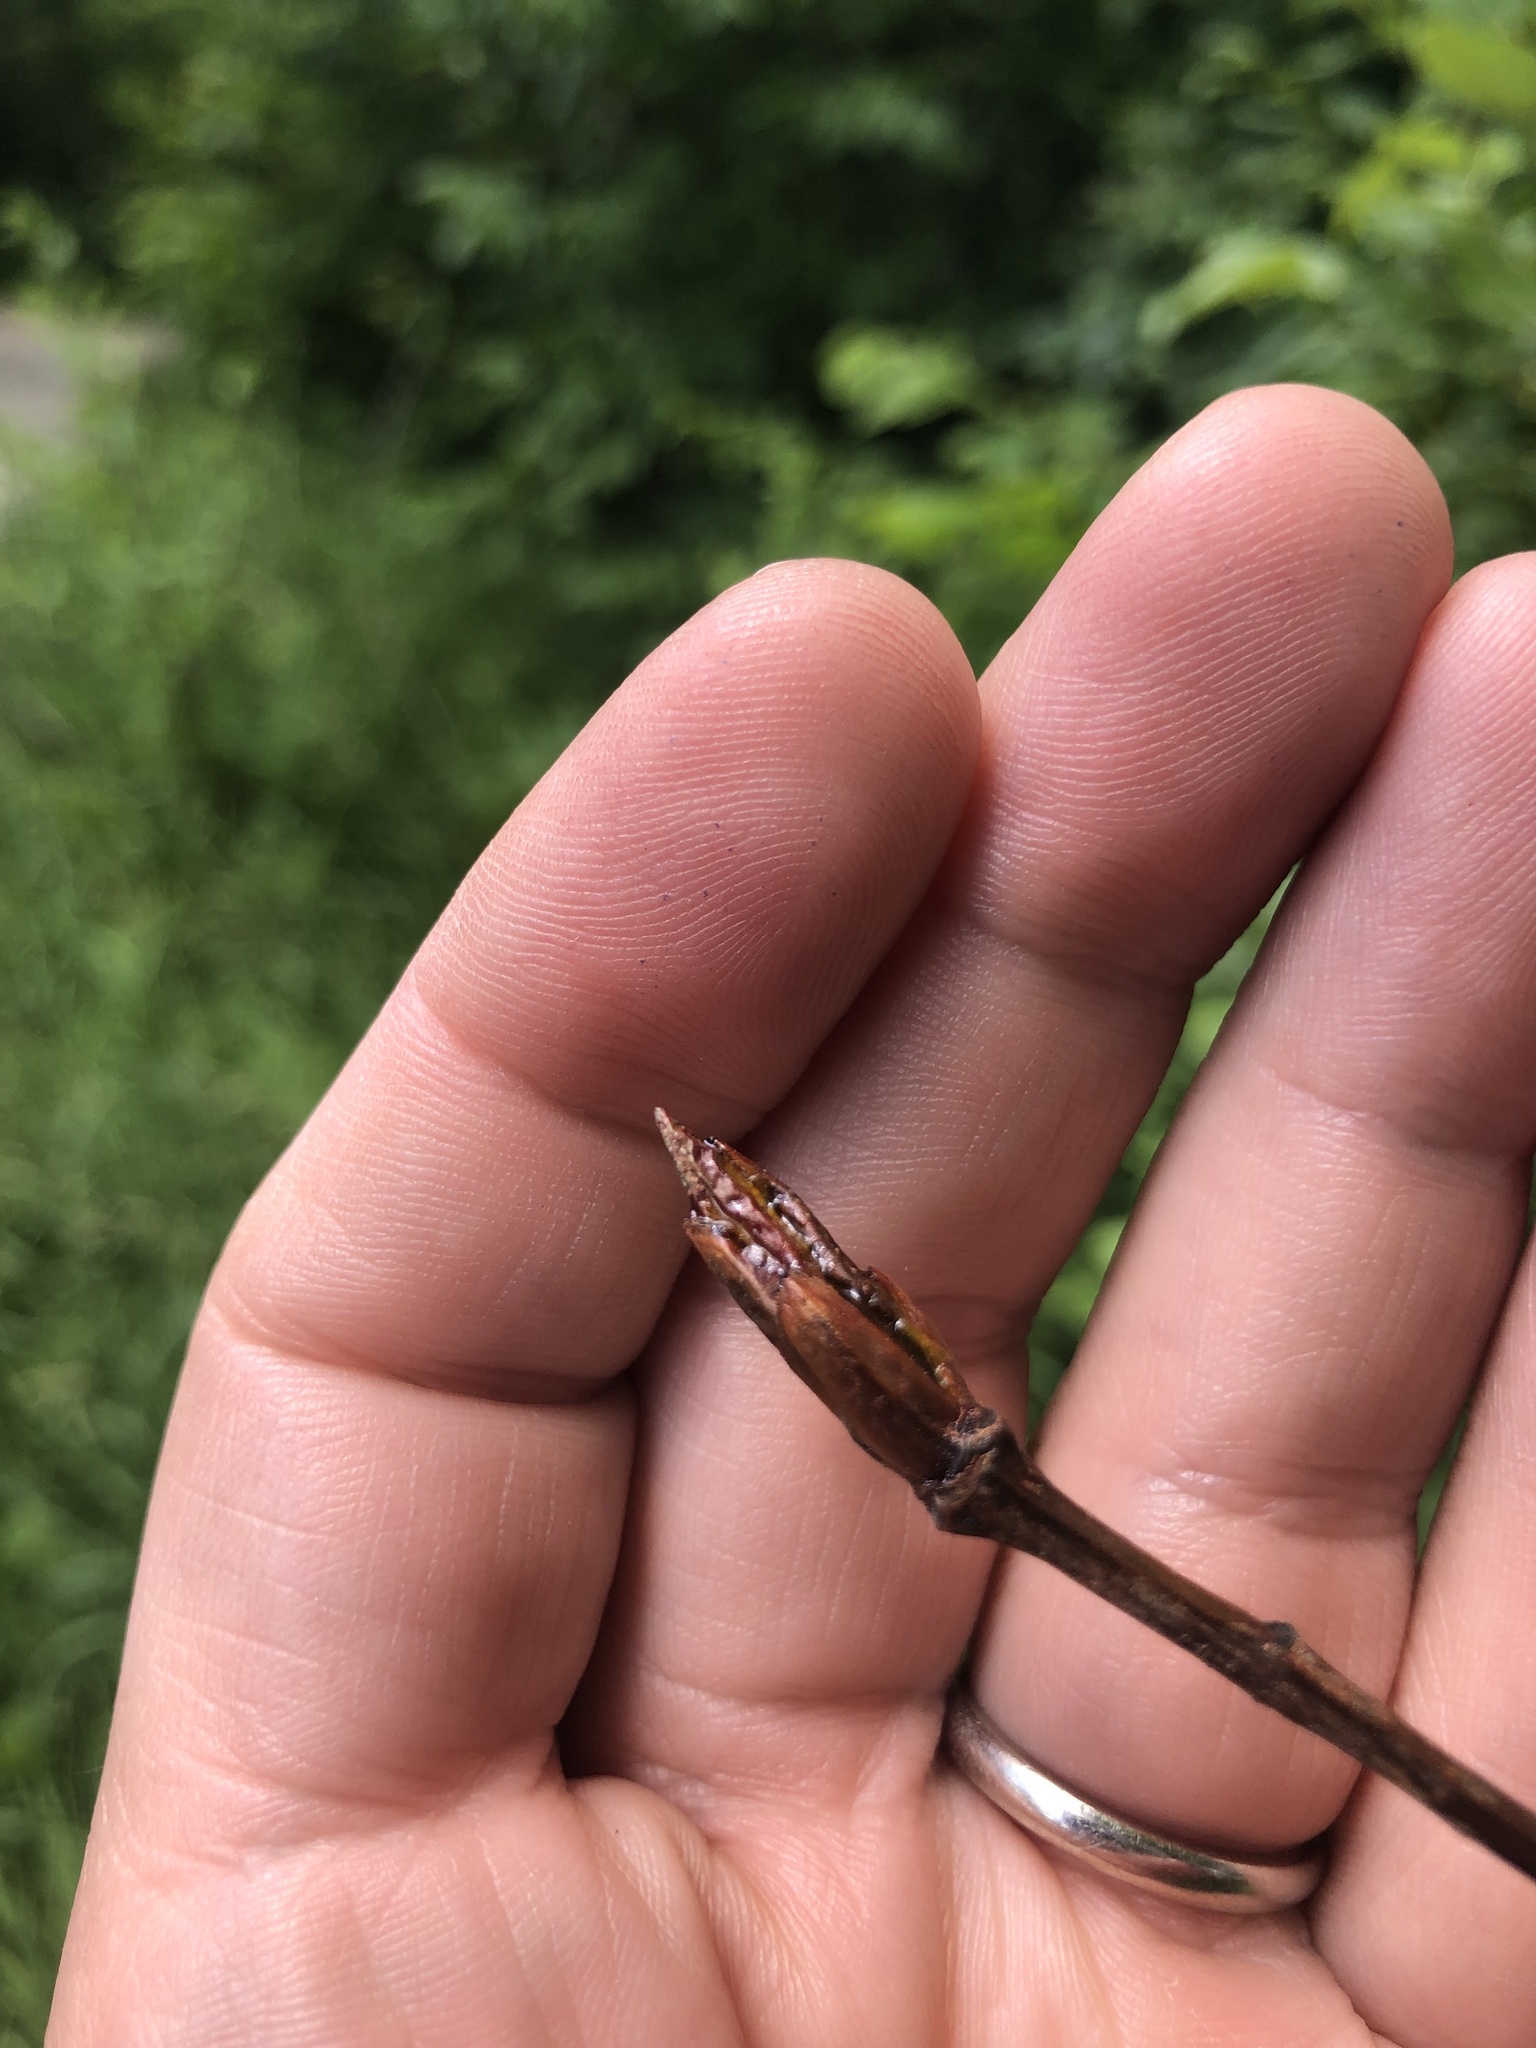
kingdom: Plantae
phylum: Tracheophyta
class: Magnoliopsida
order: Malpighiales
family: Salicaceae
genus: Populus
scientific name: Populus balsamifera
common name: Balsam poplar
